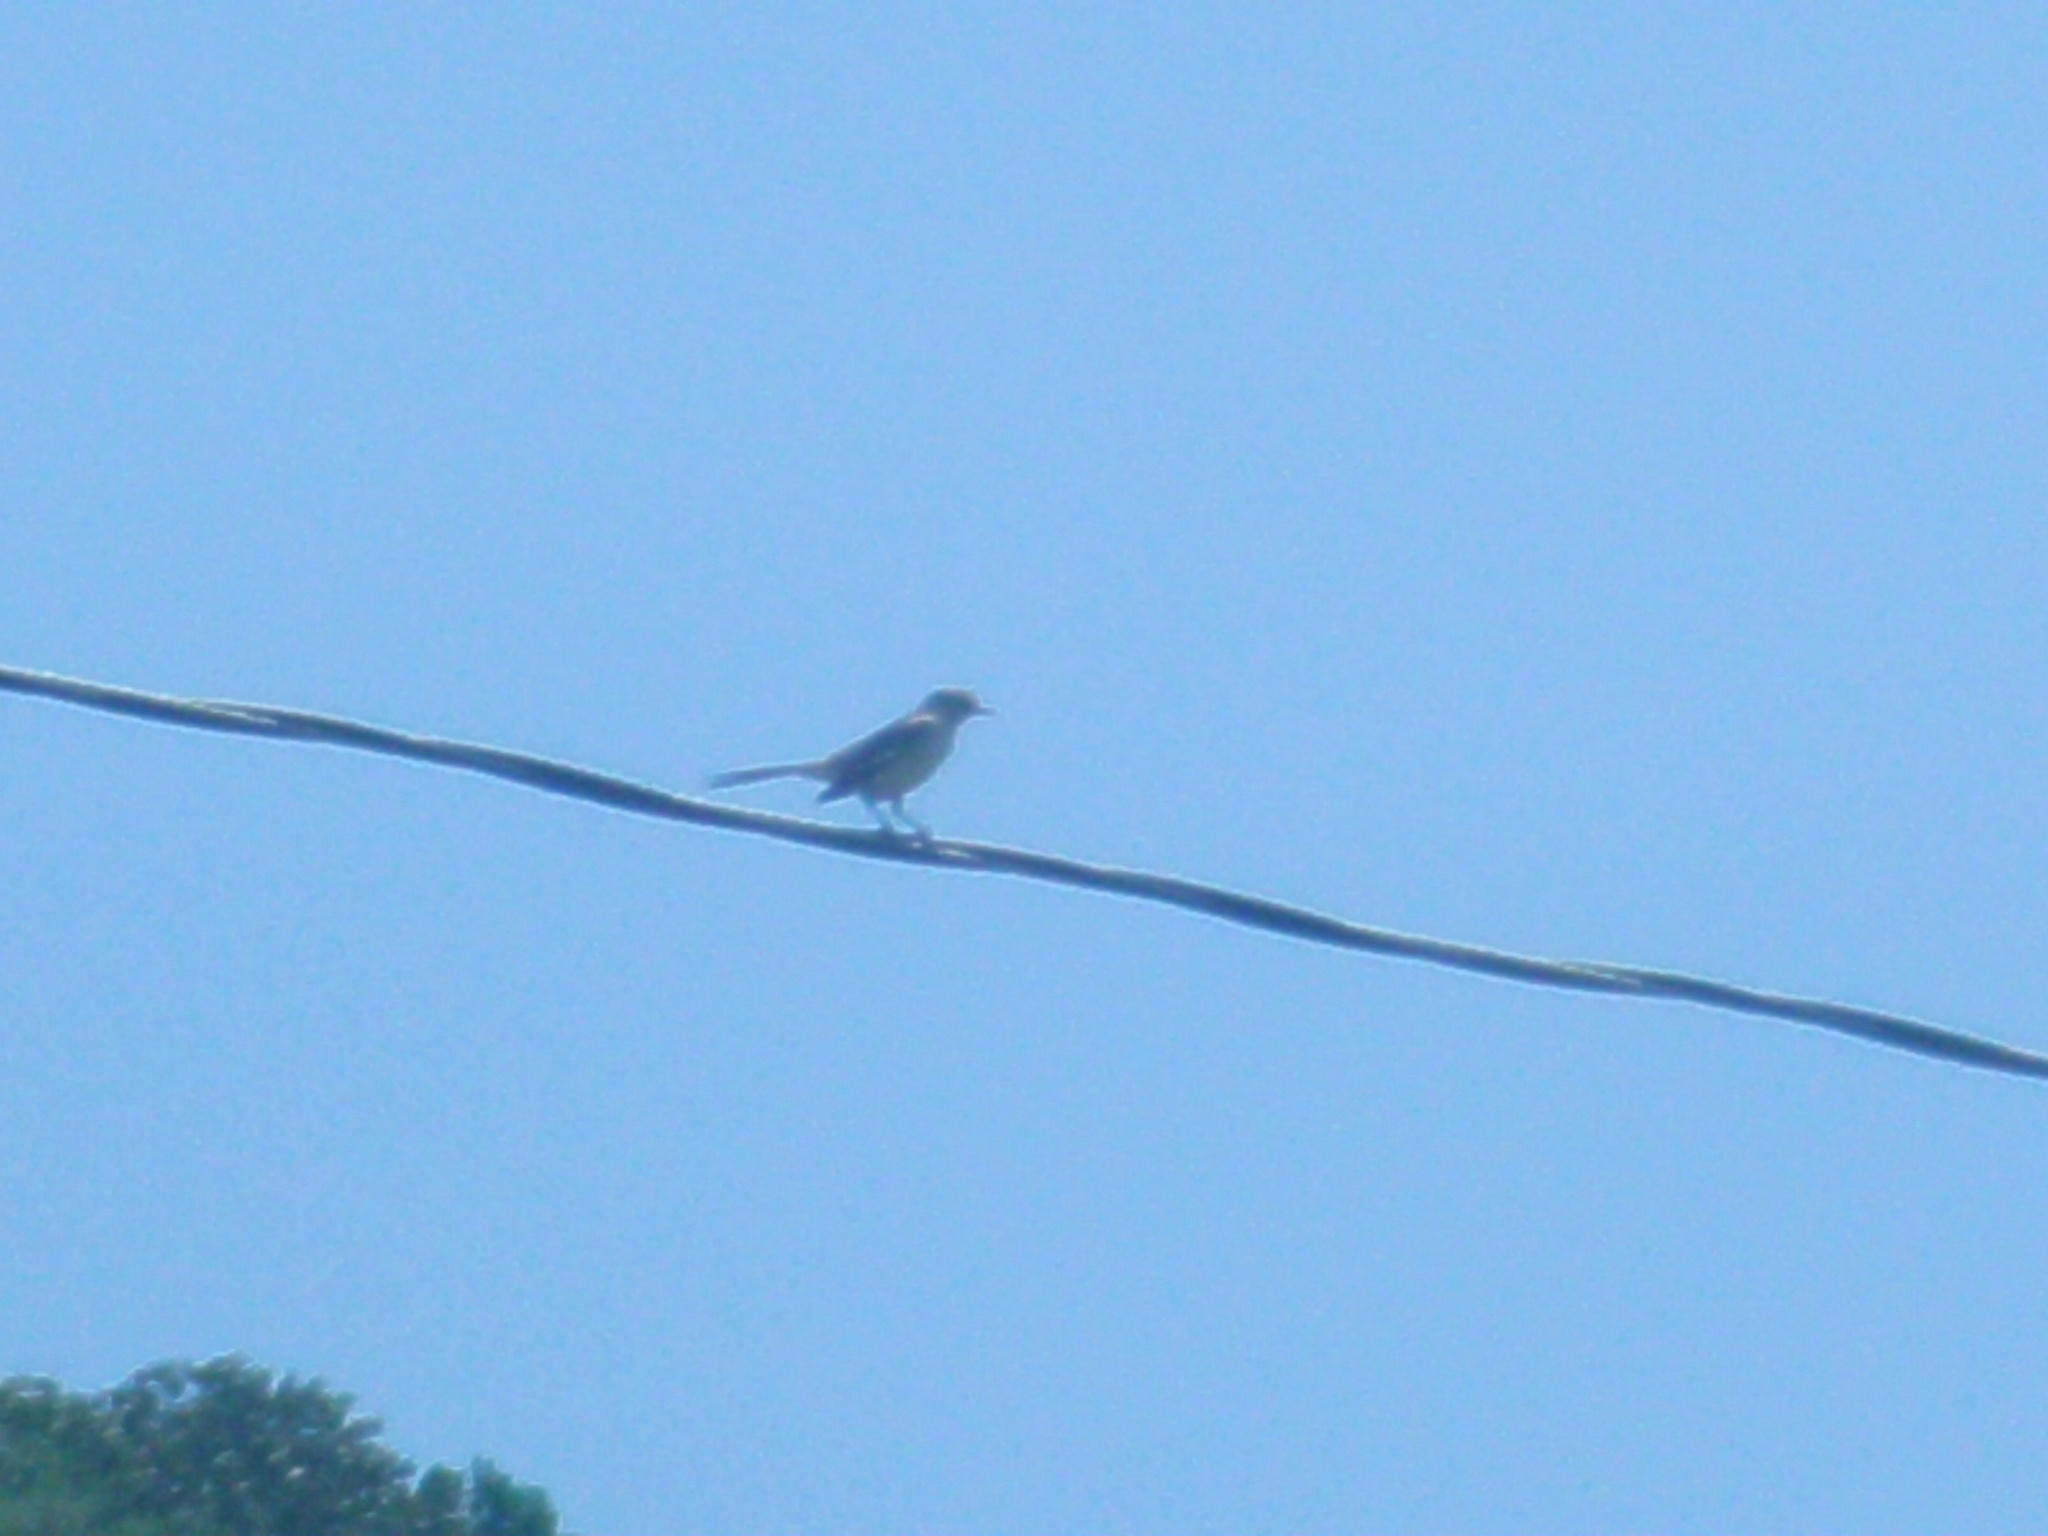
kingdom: Animalia
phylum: Chordata
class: Aves
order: Passeriformes
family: Mimidae
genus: Mimus
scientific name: Mimus polyglottos
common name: Northern mockingbird
